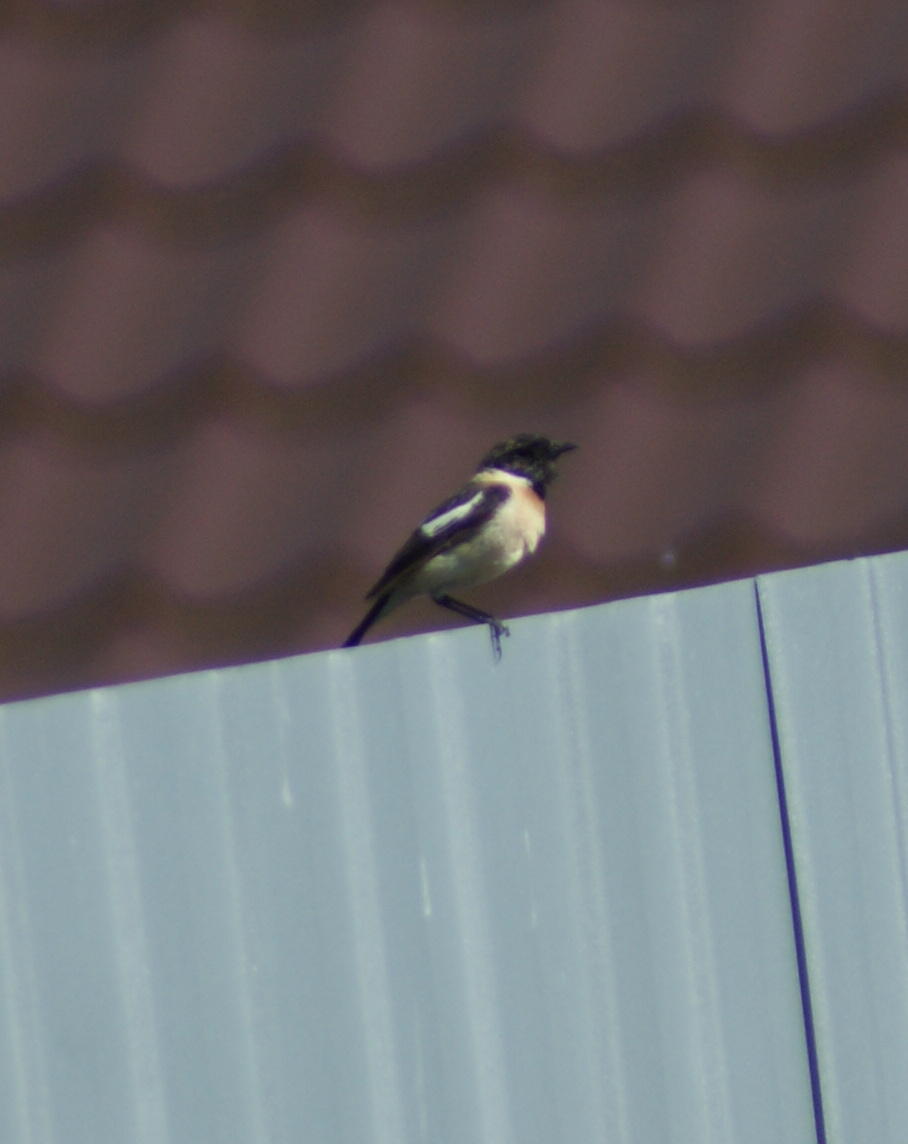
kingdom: Animalia
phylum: Chordata
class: Aves
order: Passeriformes
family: Muscicapidae
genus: Saxicola
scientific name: Saxicola maurus
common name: Siberian stonechat
